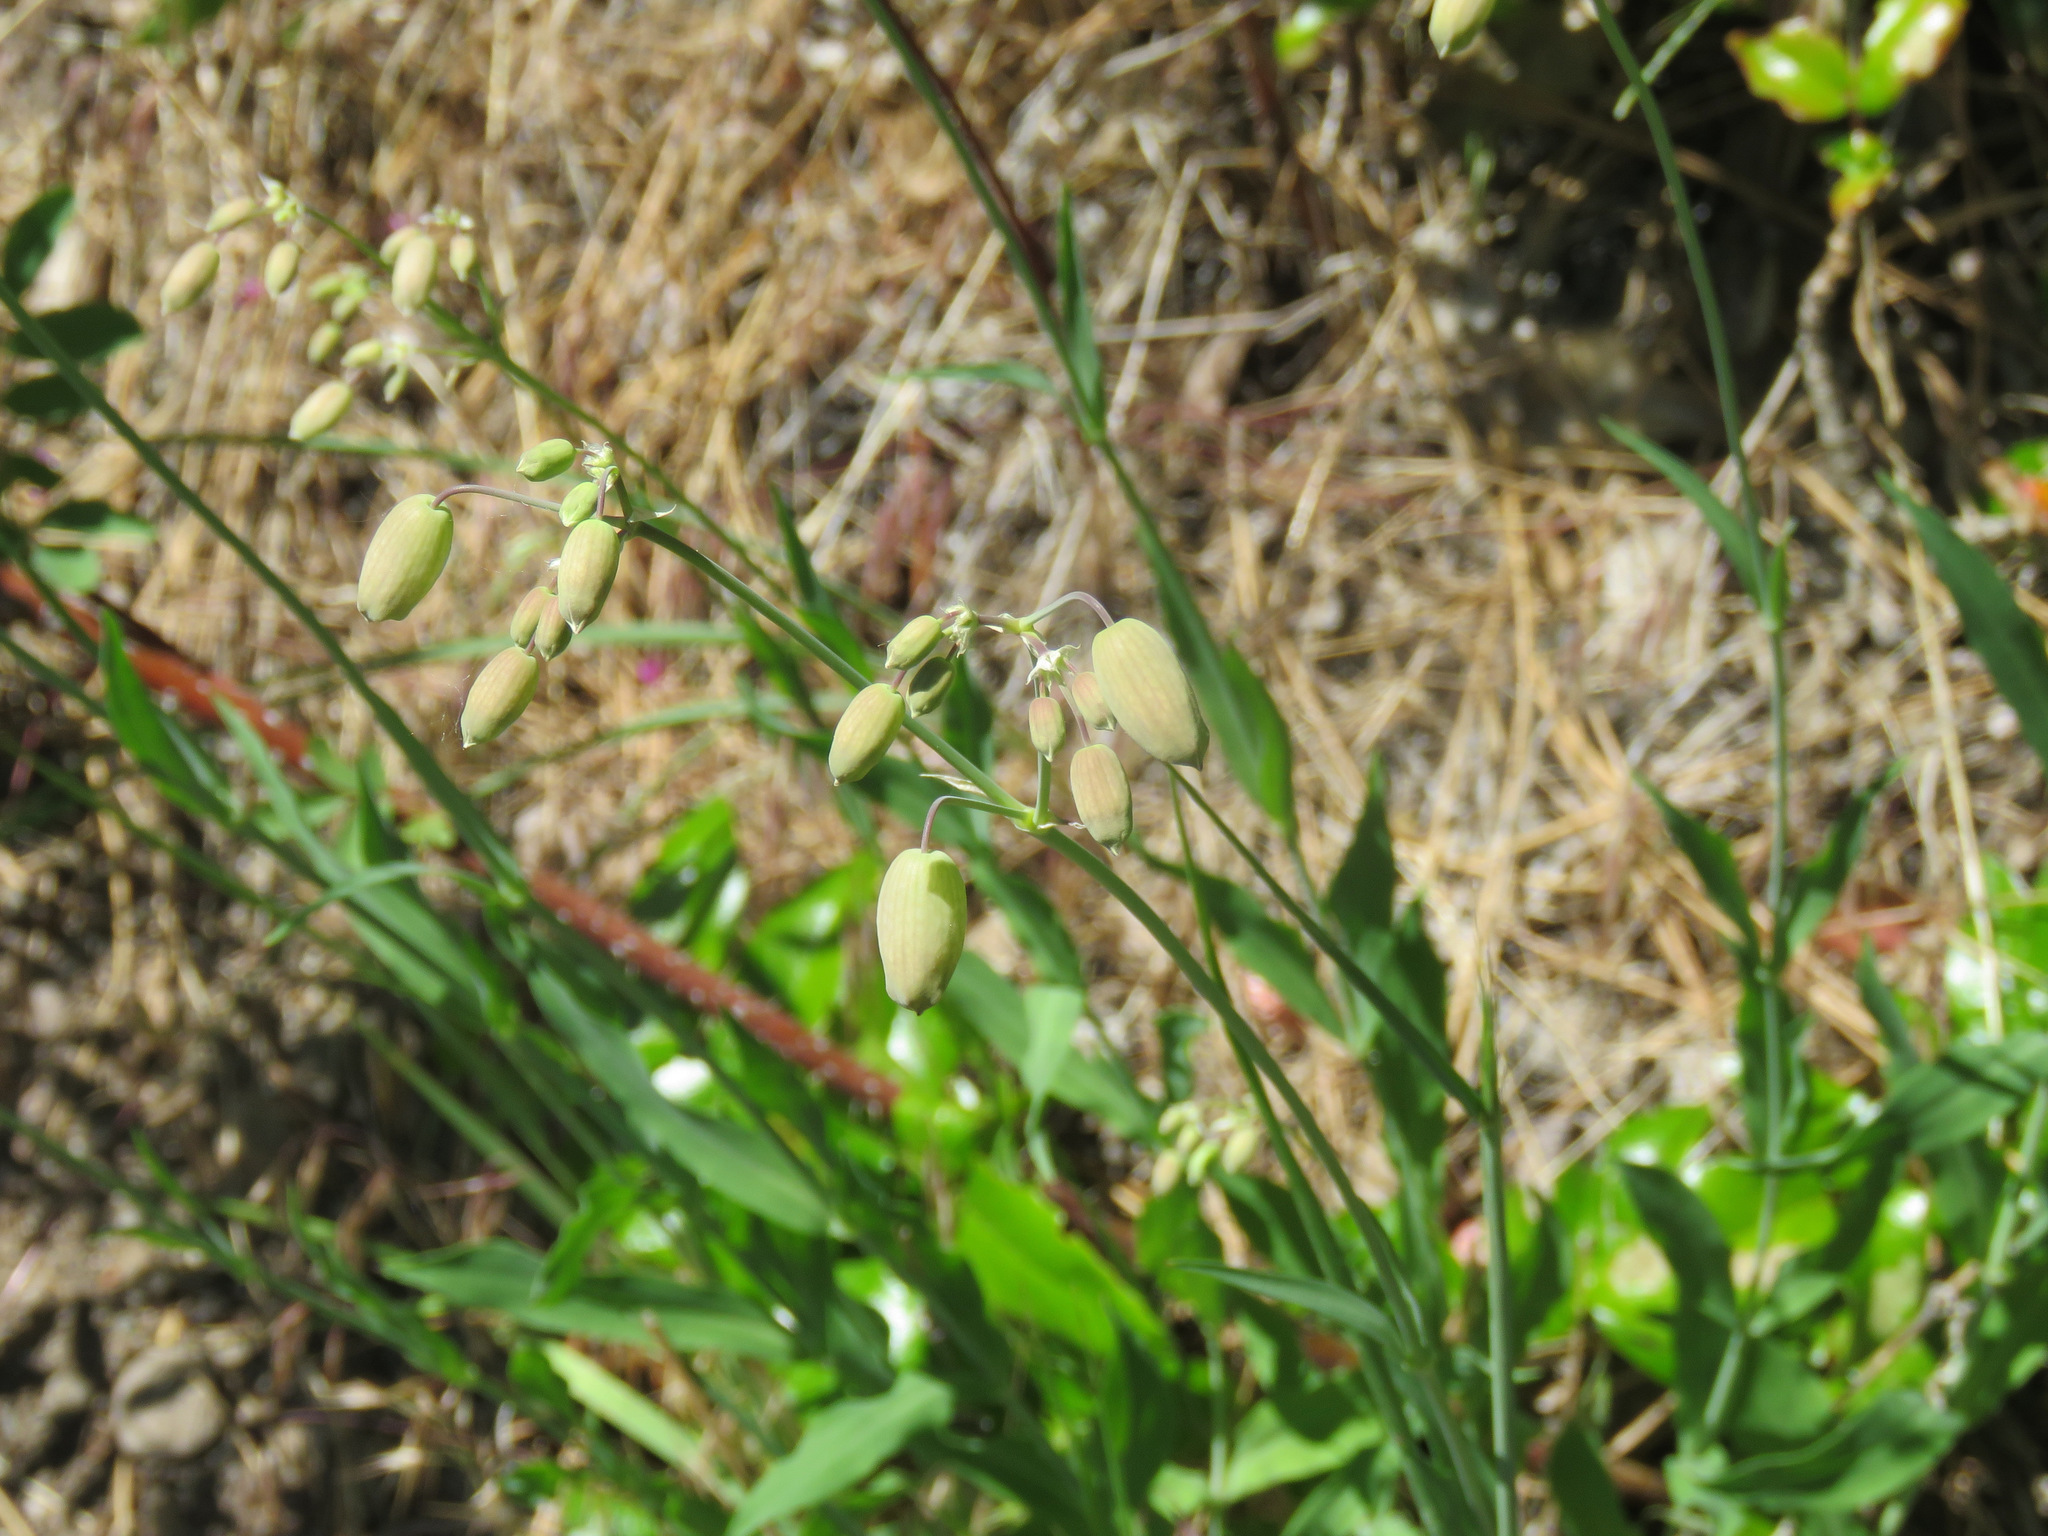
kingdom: Plantae
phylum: Tracheophyta
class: Magnoliopsida
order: Caryophyllales
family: Caryophyllaceae
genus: Silene
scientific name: Silene vulgaris
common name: Bladder campion
